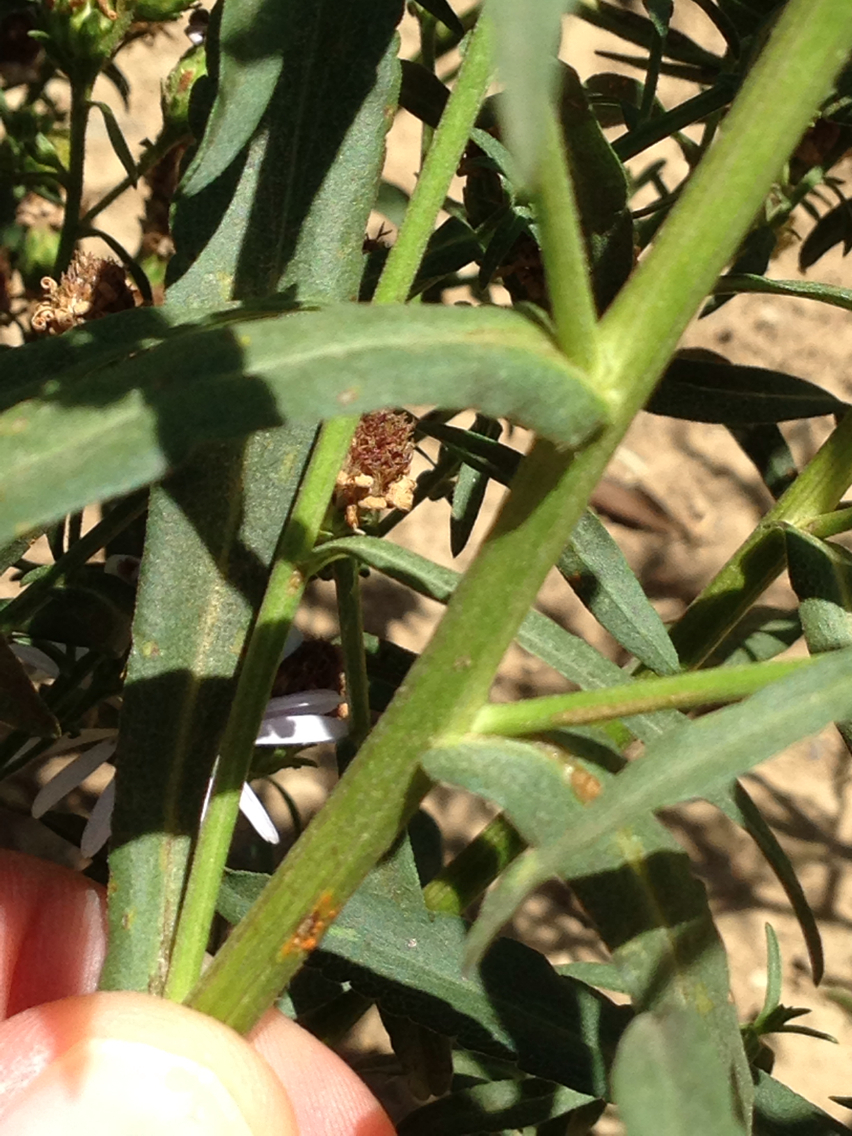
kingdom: Plantae
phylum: Tracheophyta
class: Magnoliopsida
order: Asterales
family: Asteraceae
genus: Symphyotrichum
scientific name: Symphyotrichum chilense
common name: Pacific aster
